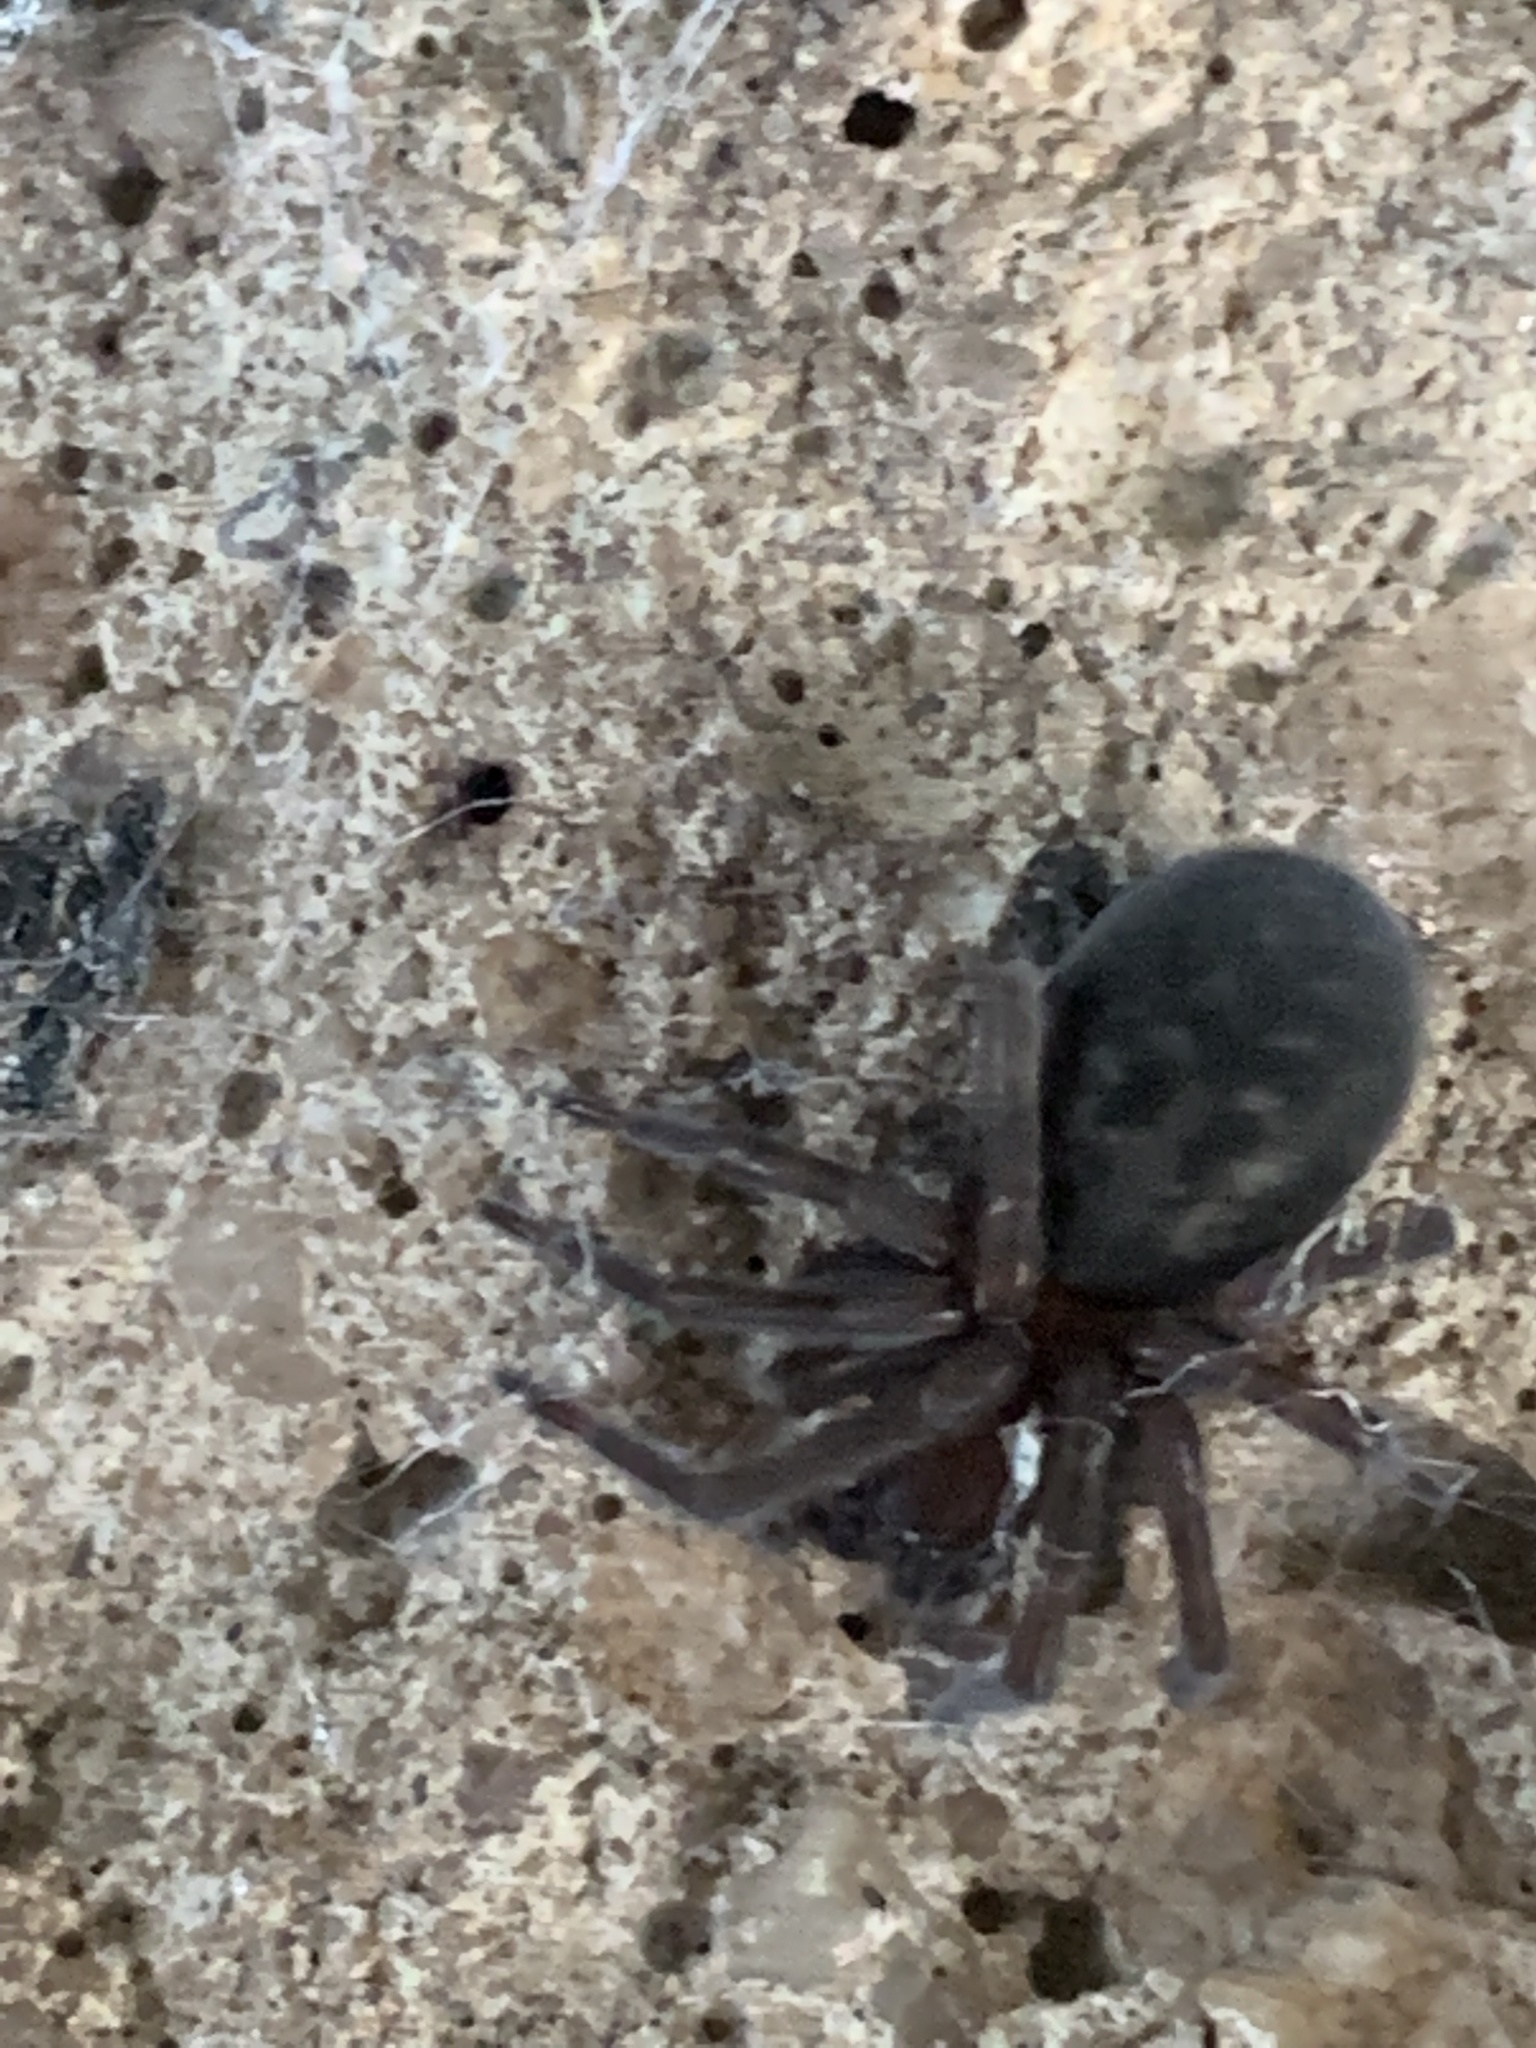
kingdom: Animalia
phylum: Arthropoda
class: Arachnida
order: Araneae
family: Amaurobiidae
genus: Amaurobius
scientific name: Amaurobius ferox
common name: Black laceweaver
